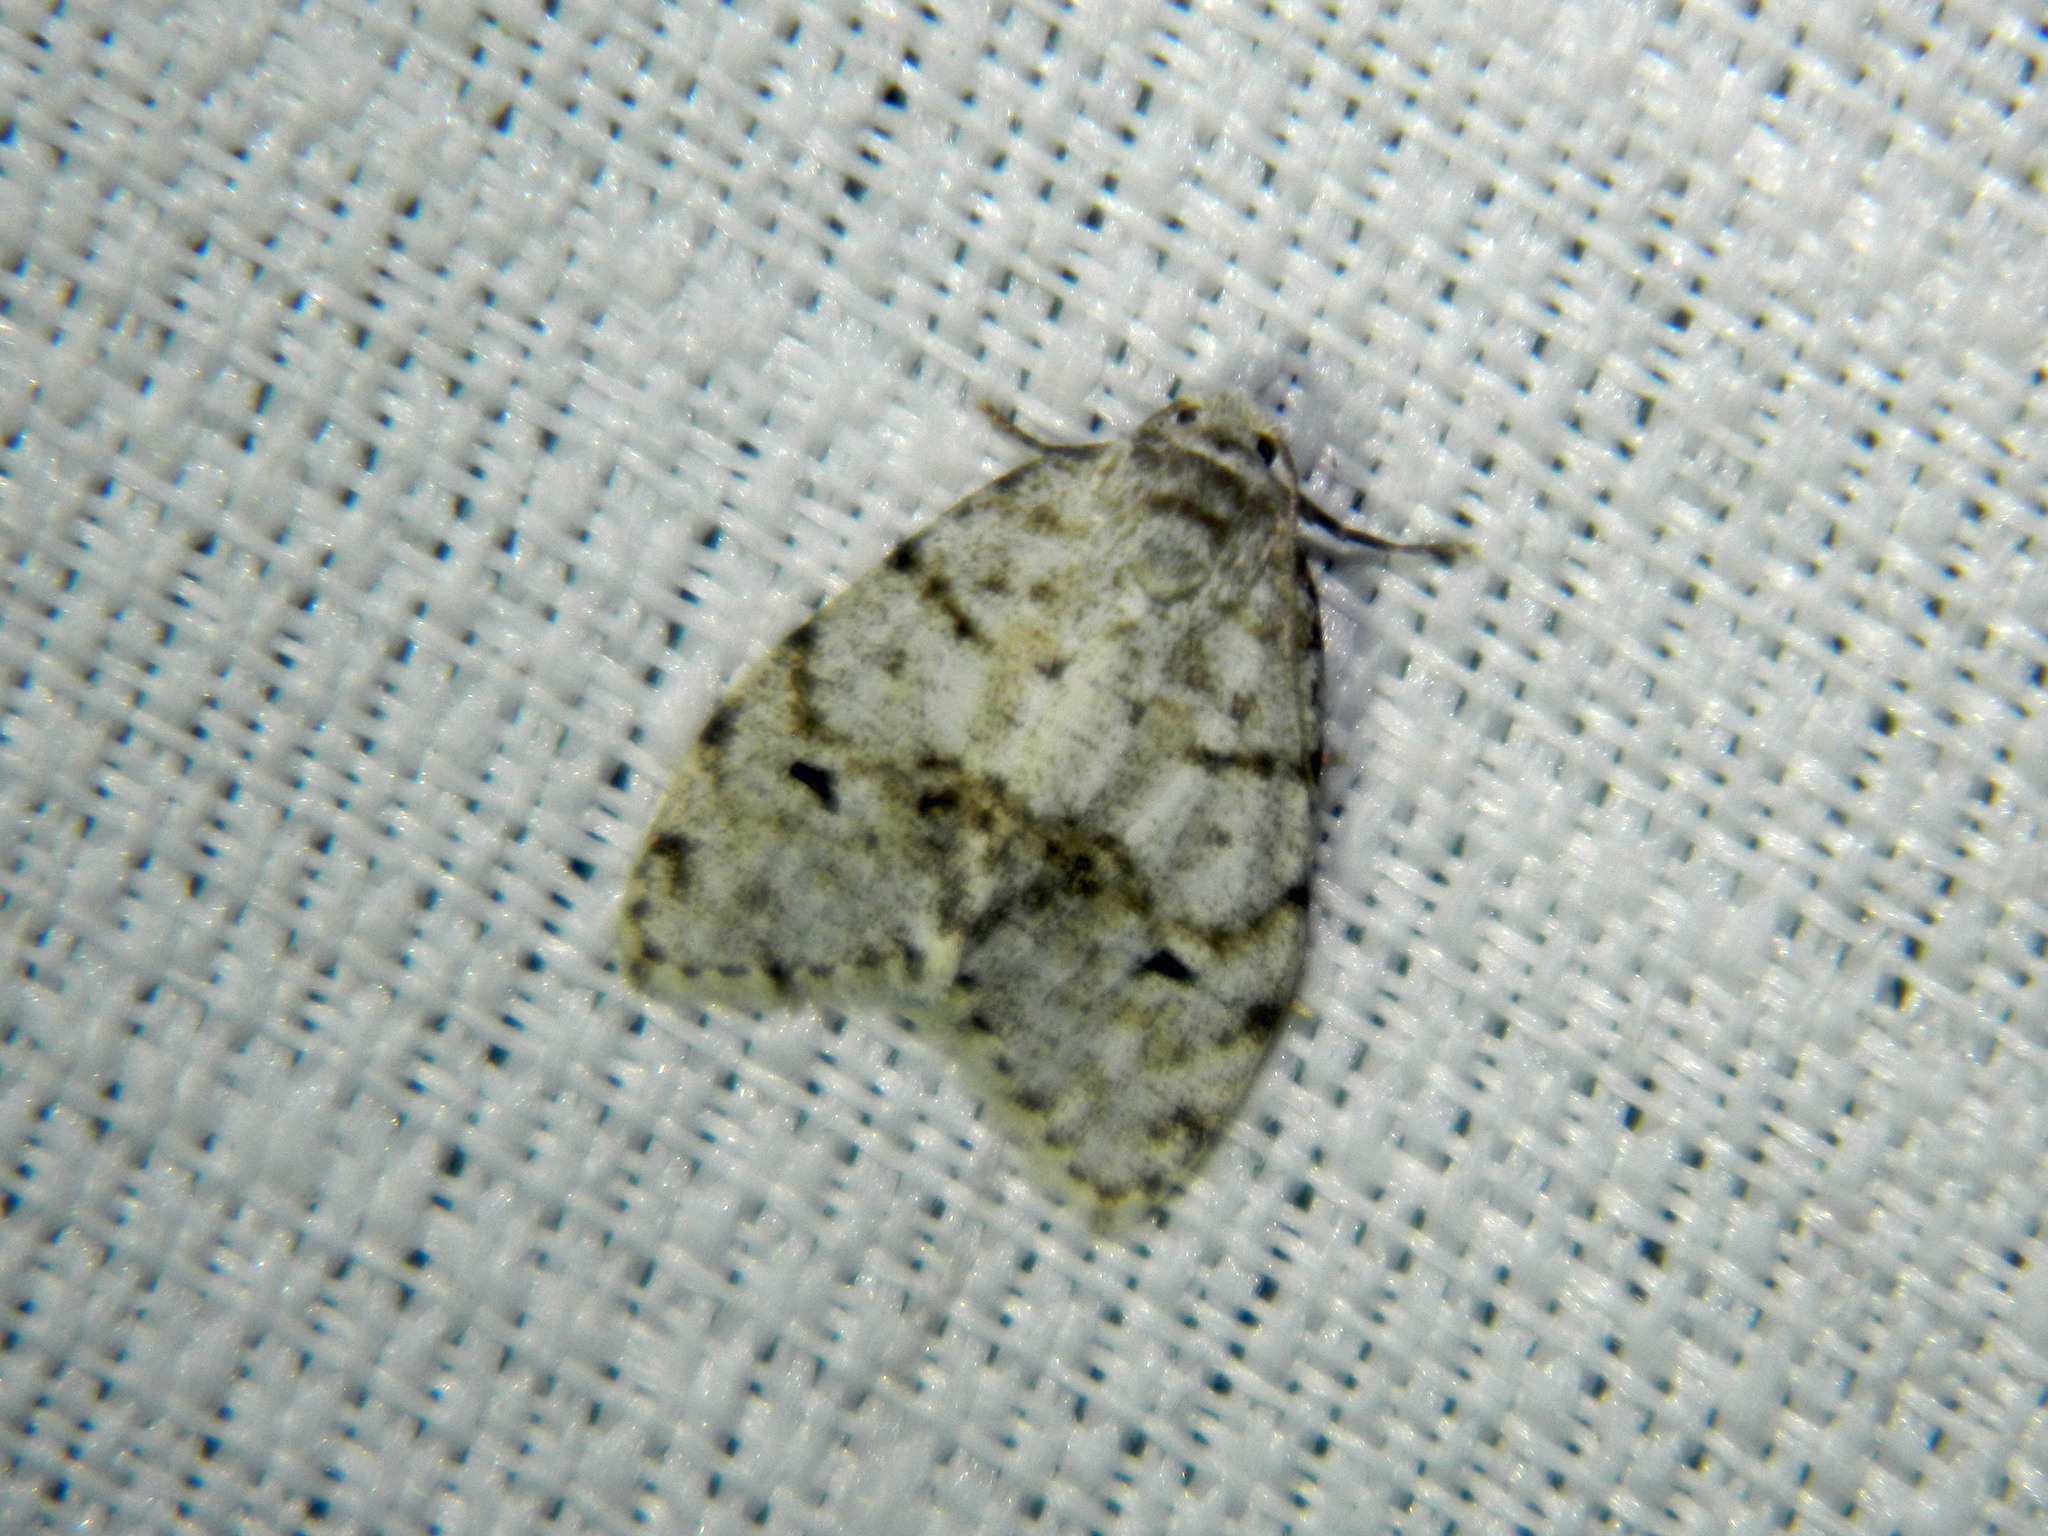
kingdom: Animalia
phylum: Arthropoda
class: Insecta
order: Lepidoptera
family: Erebidae
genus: Clemensia
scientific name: Clemensia umbrata
